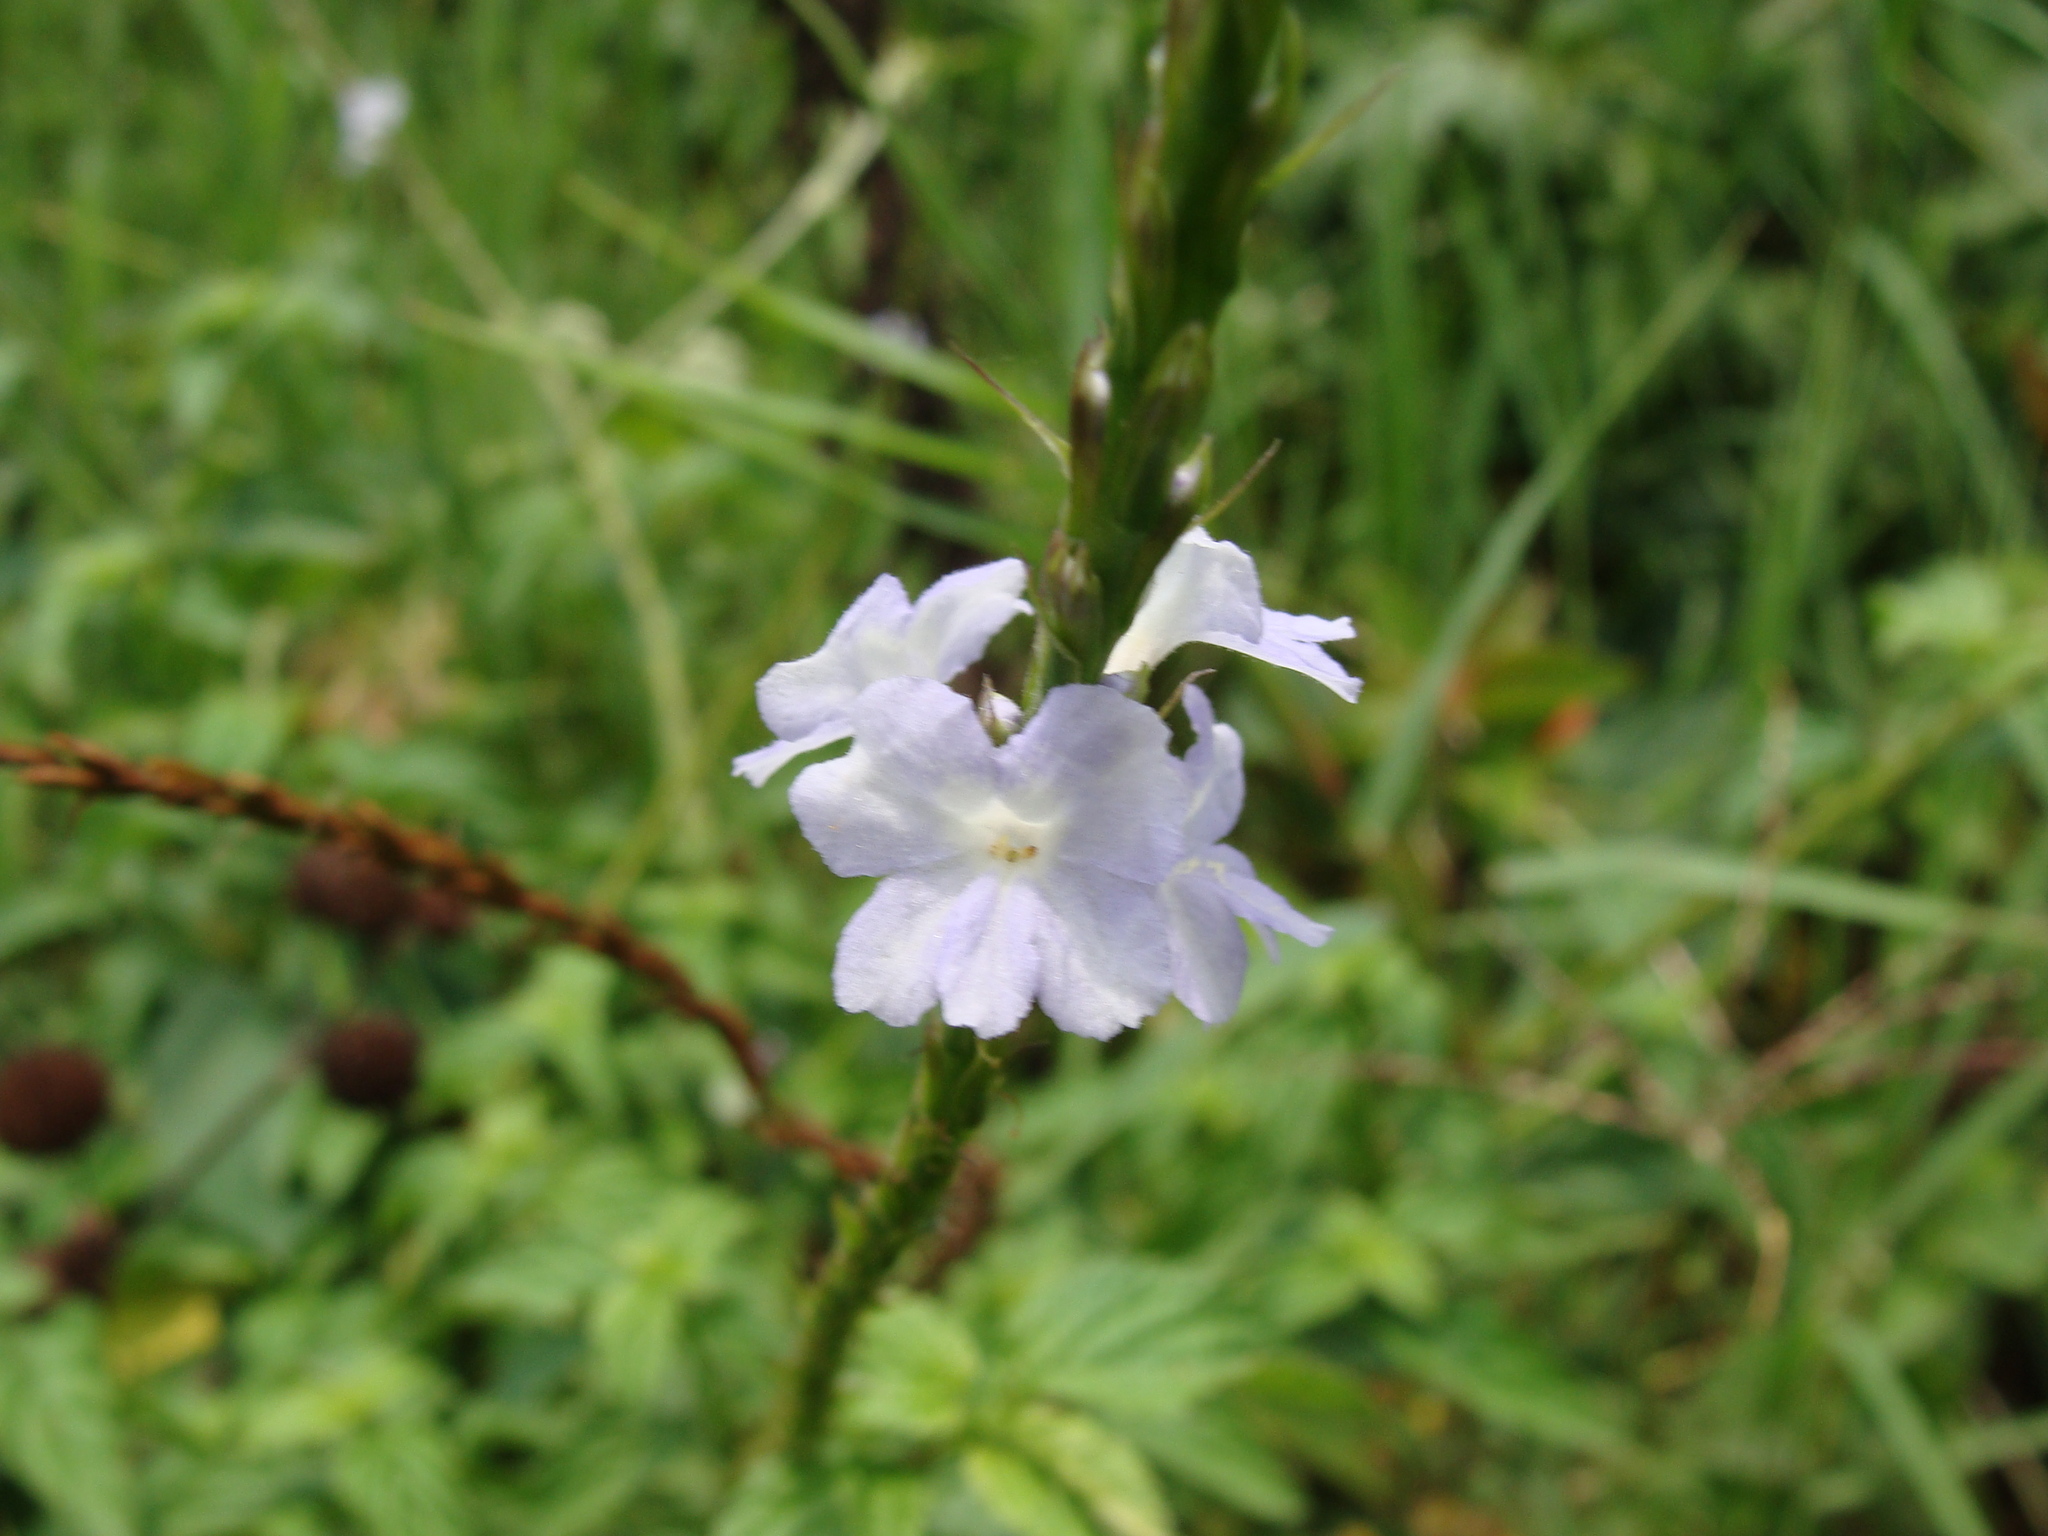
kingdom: Plantae
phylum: Tracheophyta
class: Magnoliopsida
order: Lamiales
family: Verbenaceae
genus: Stachytarpheta
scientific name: Stachytarpheta jamaicensis
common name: Light-blue snakeweed
